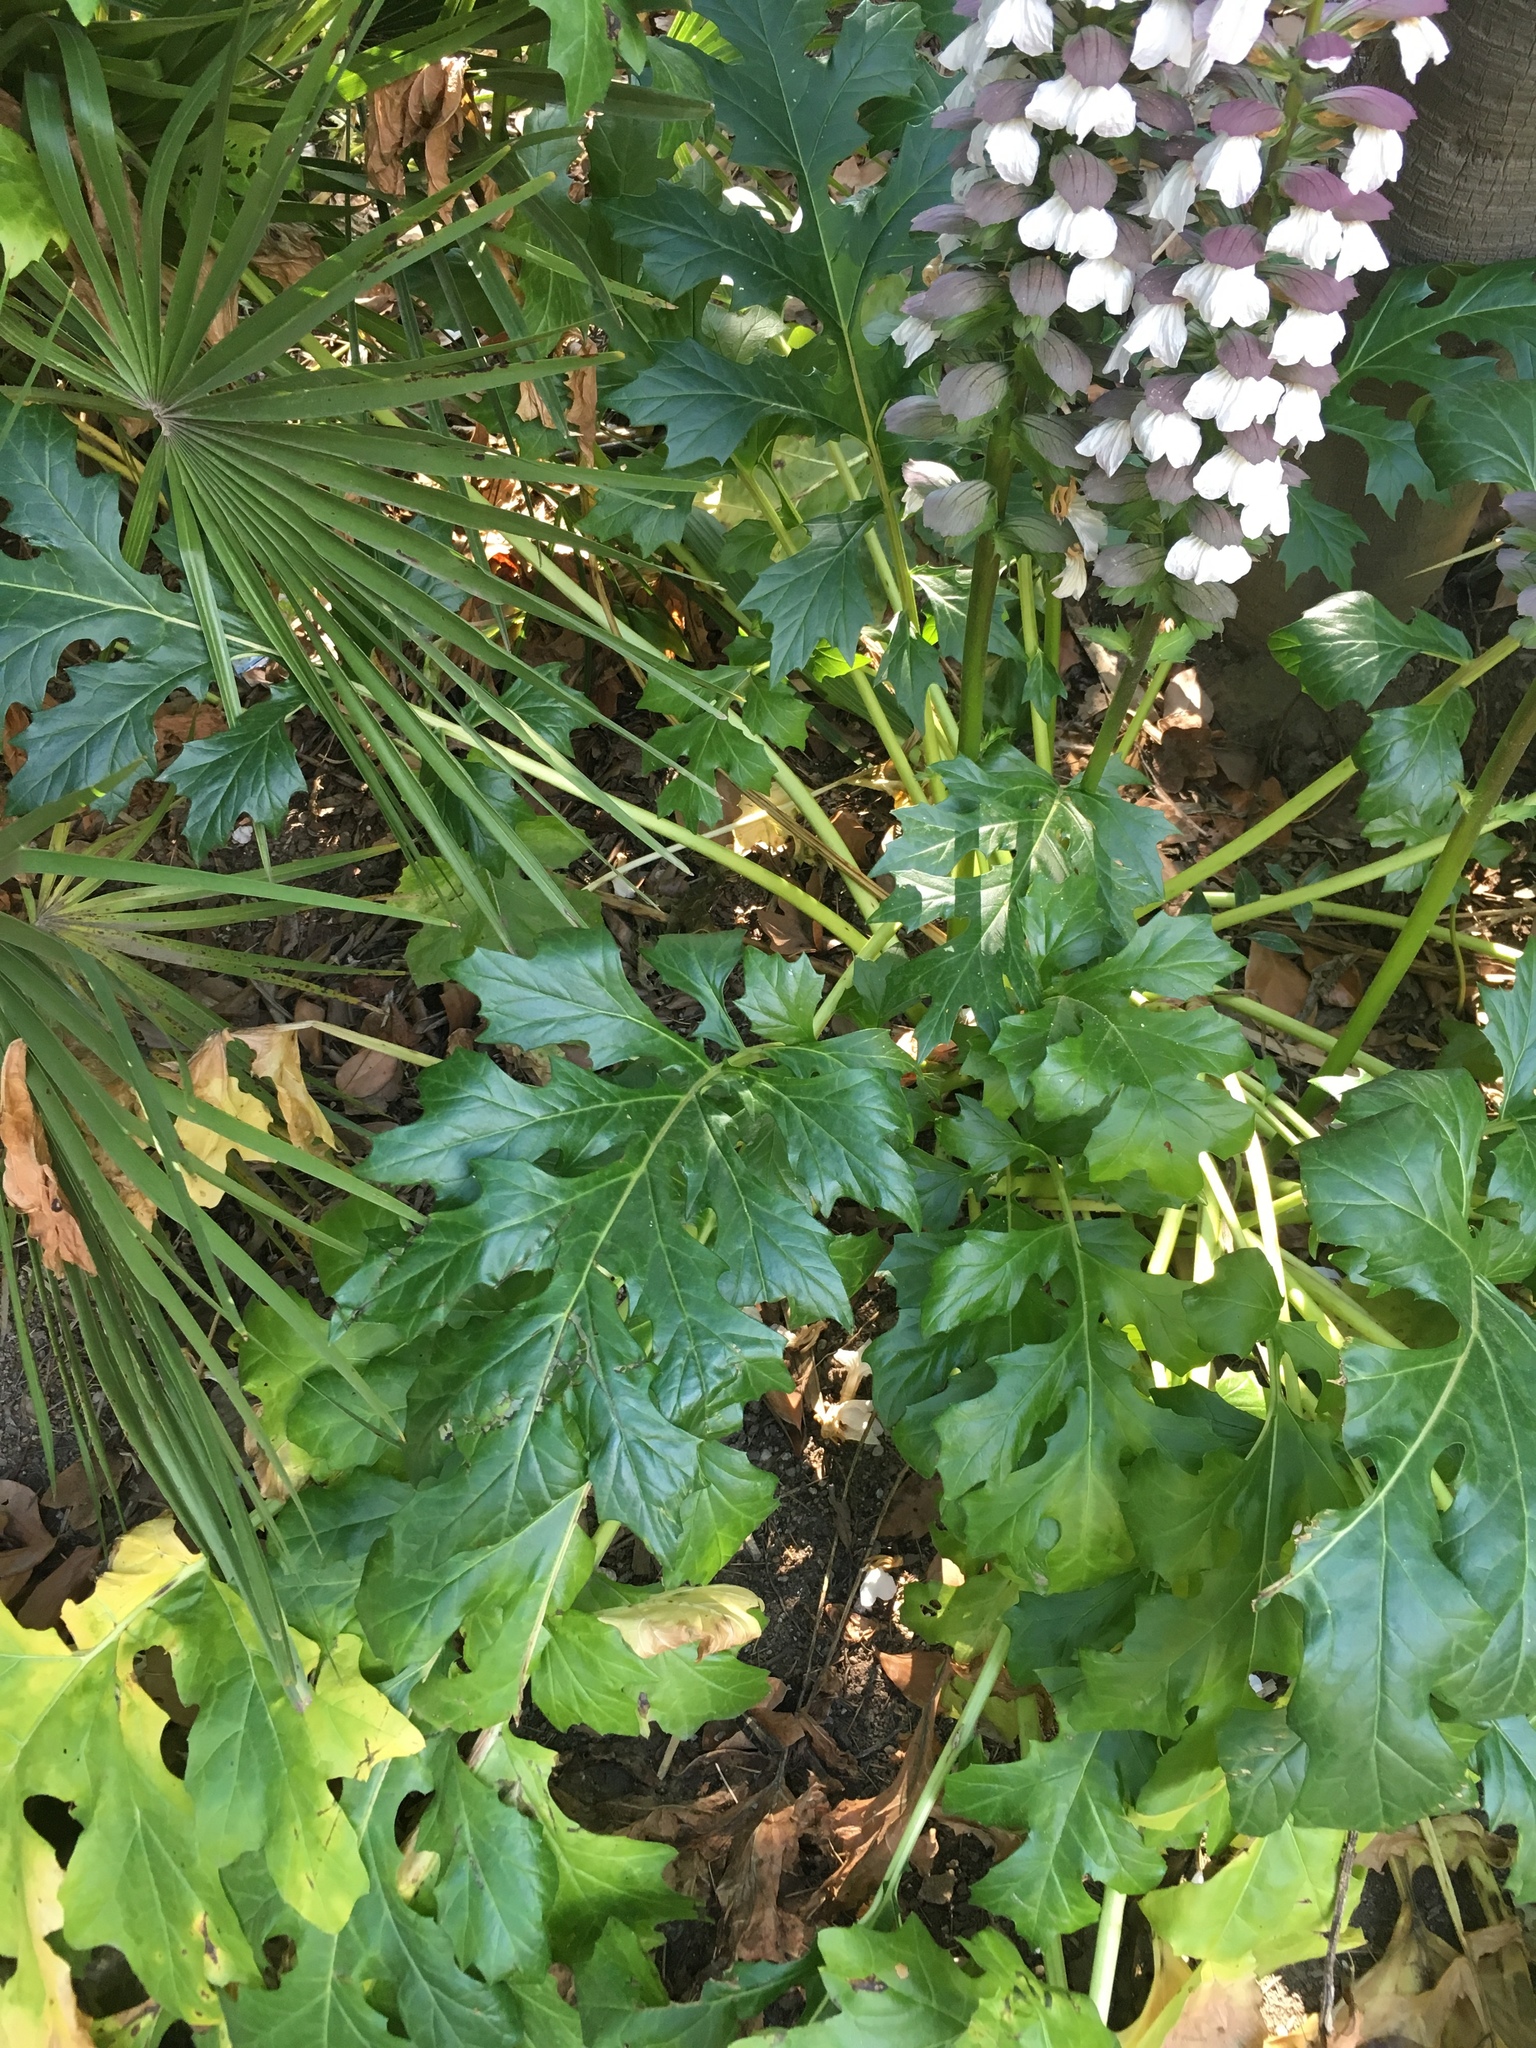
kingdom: Plantae
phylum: Tracheophyta
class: Magnoliopsida
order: Lamiales
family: Acanthaceae
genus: Acanthus
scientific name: Acanthus mollis
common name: Bear's-breech
